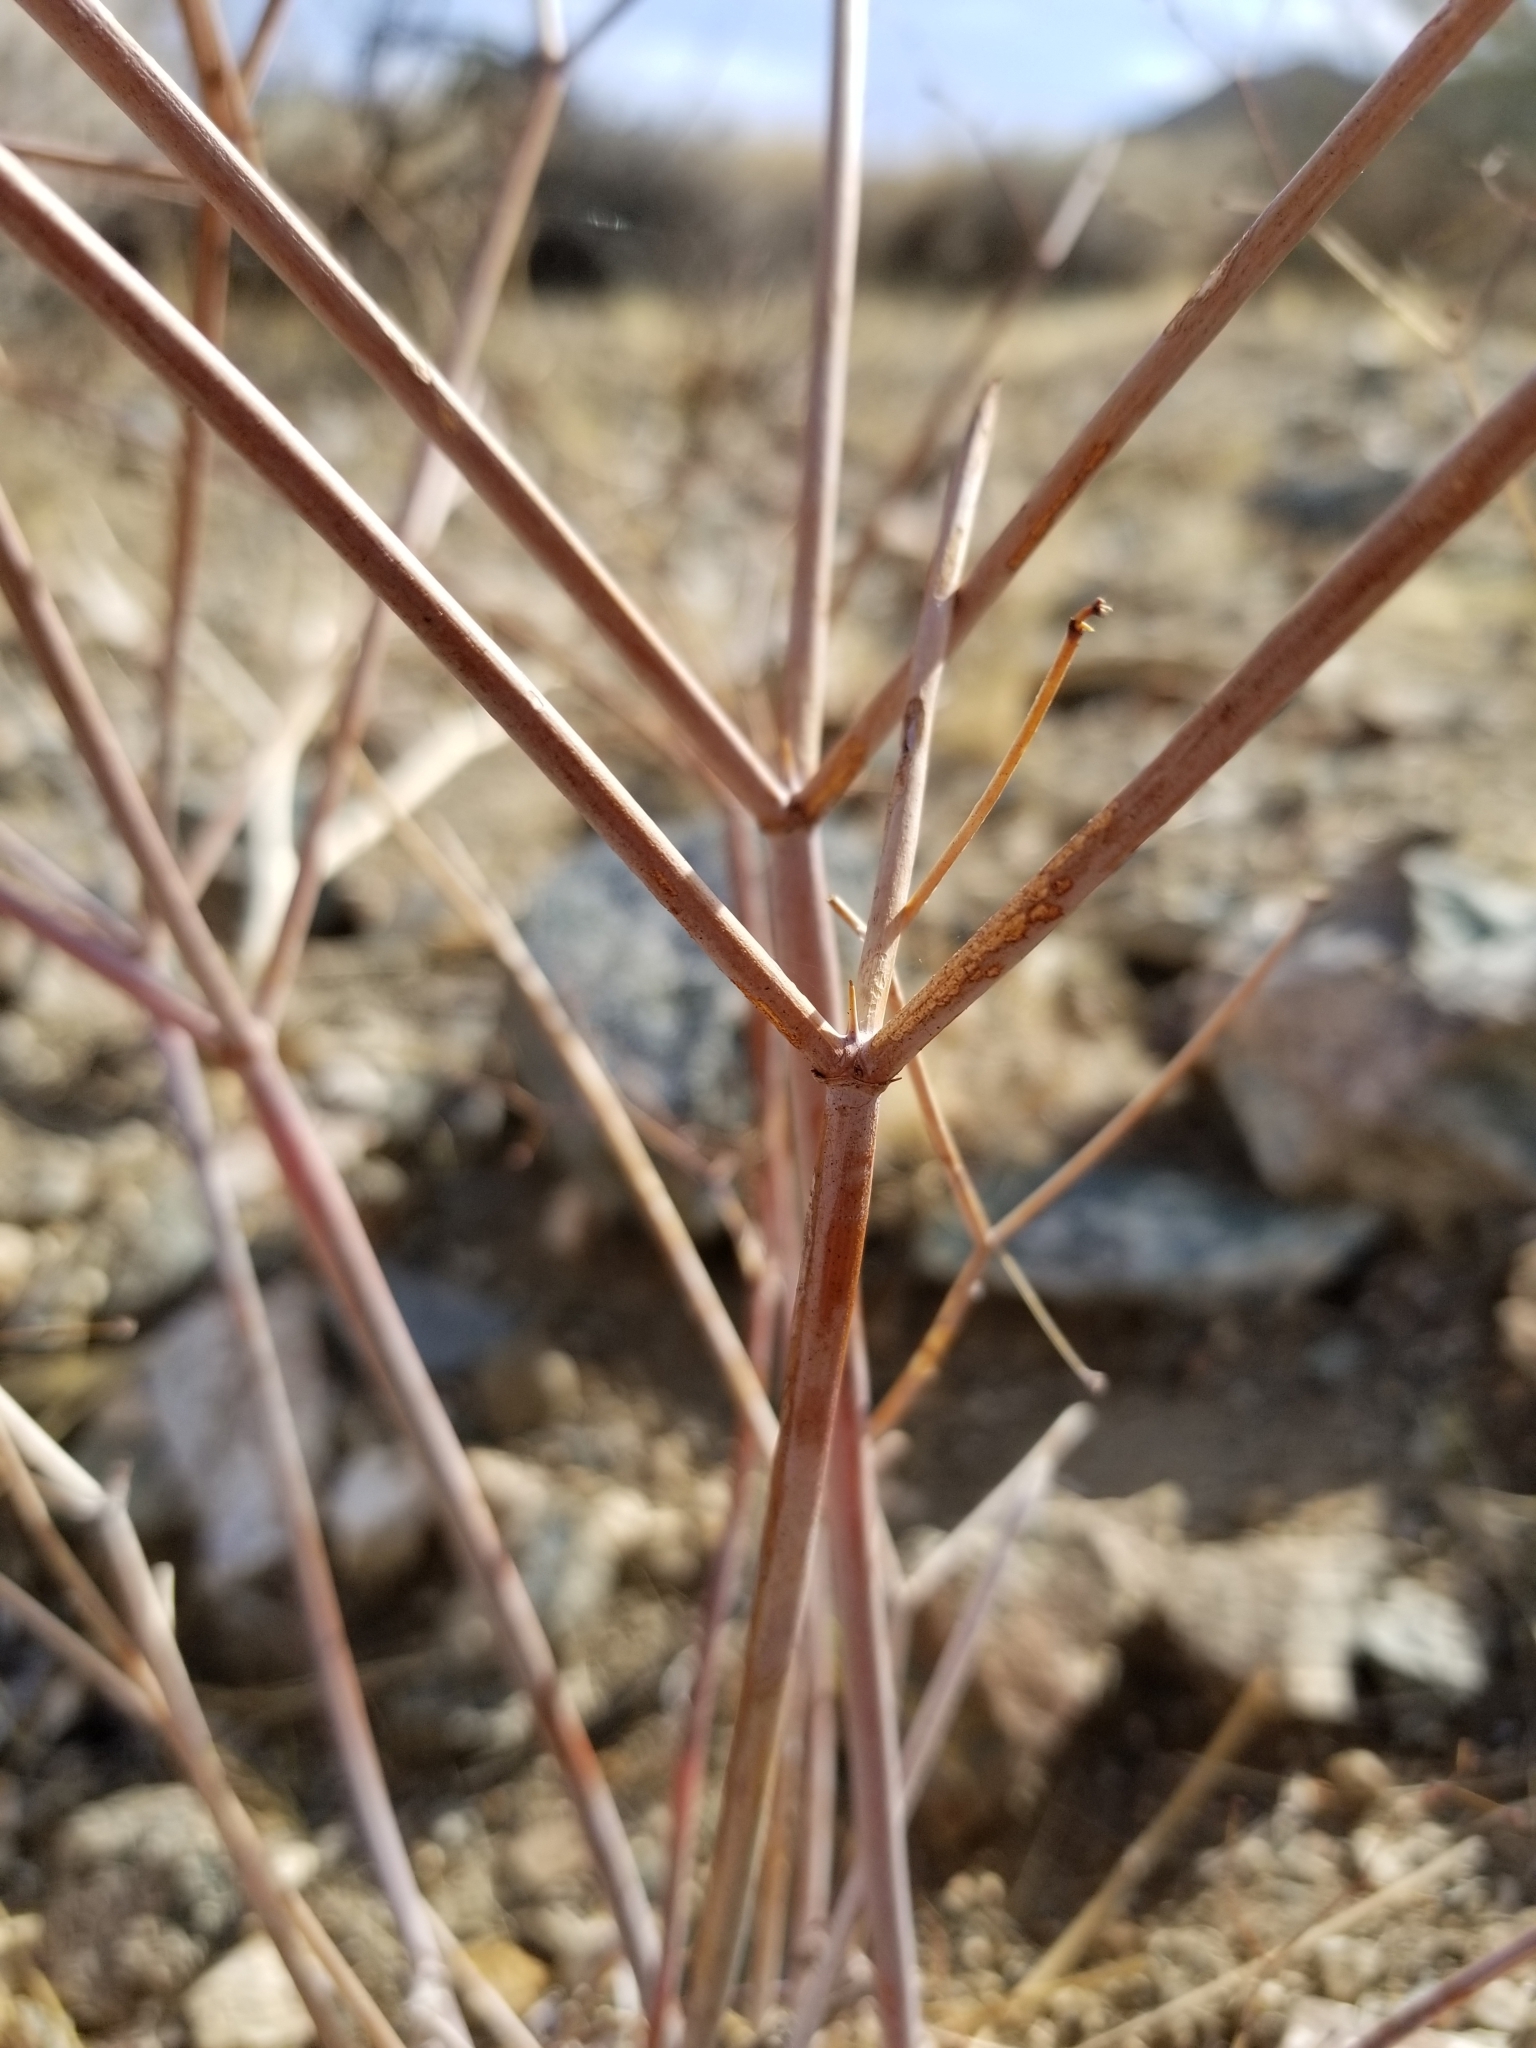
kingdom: Plantae
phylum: Tracheophyta
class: Magnoliopsida
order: Caryophyllales
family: Polygonaceae
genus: Eriogonum
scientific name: Eriogonum inflatum
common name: Desert trumpet
